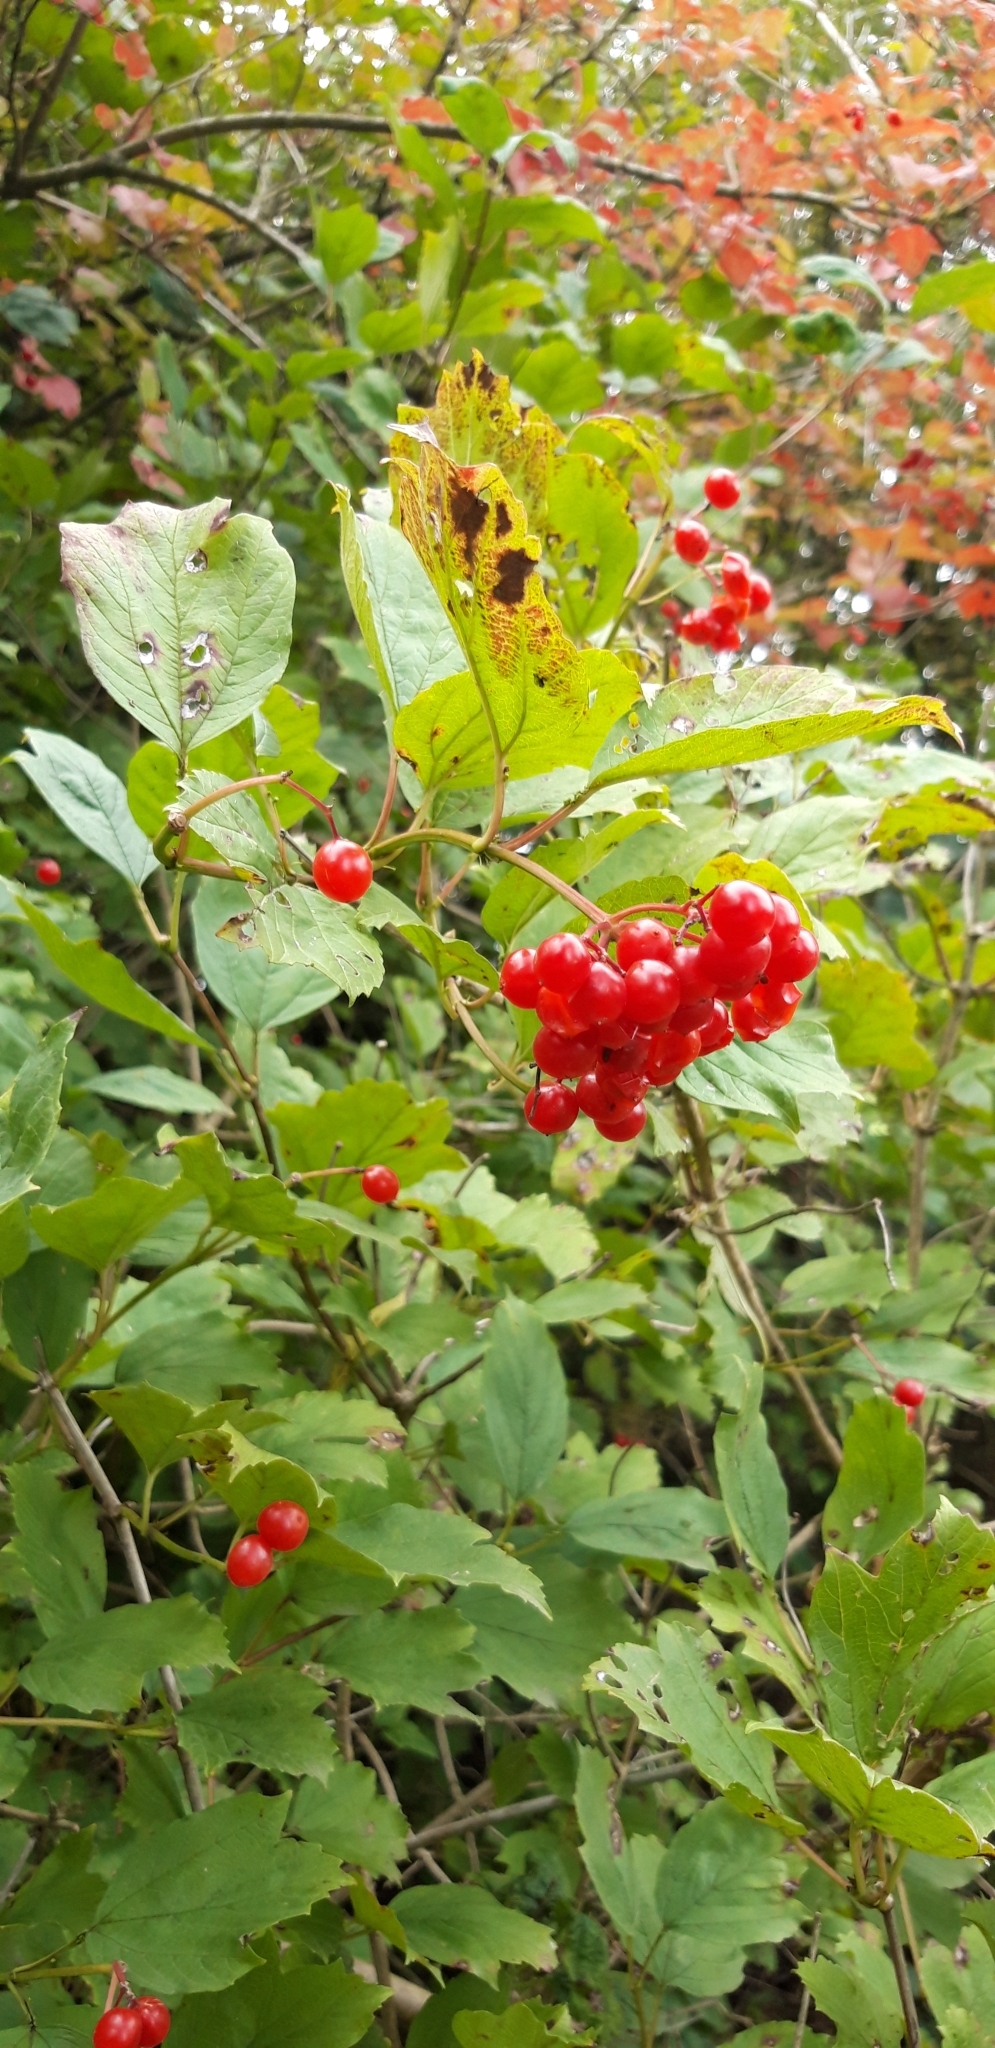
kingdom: Plantae
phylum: Tracheophyta
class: Magnoliopsida
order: Dipsacales
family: Viburnaceae
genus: Viburnum
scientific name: Viburnum opulus
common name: Guelder-rose
